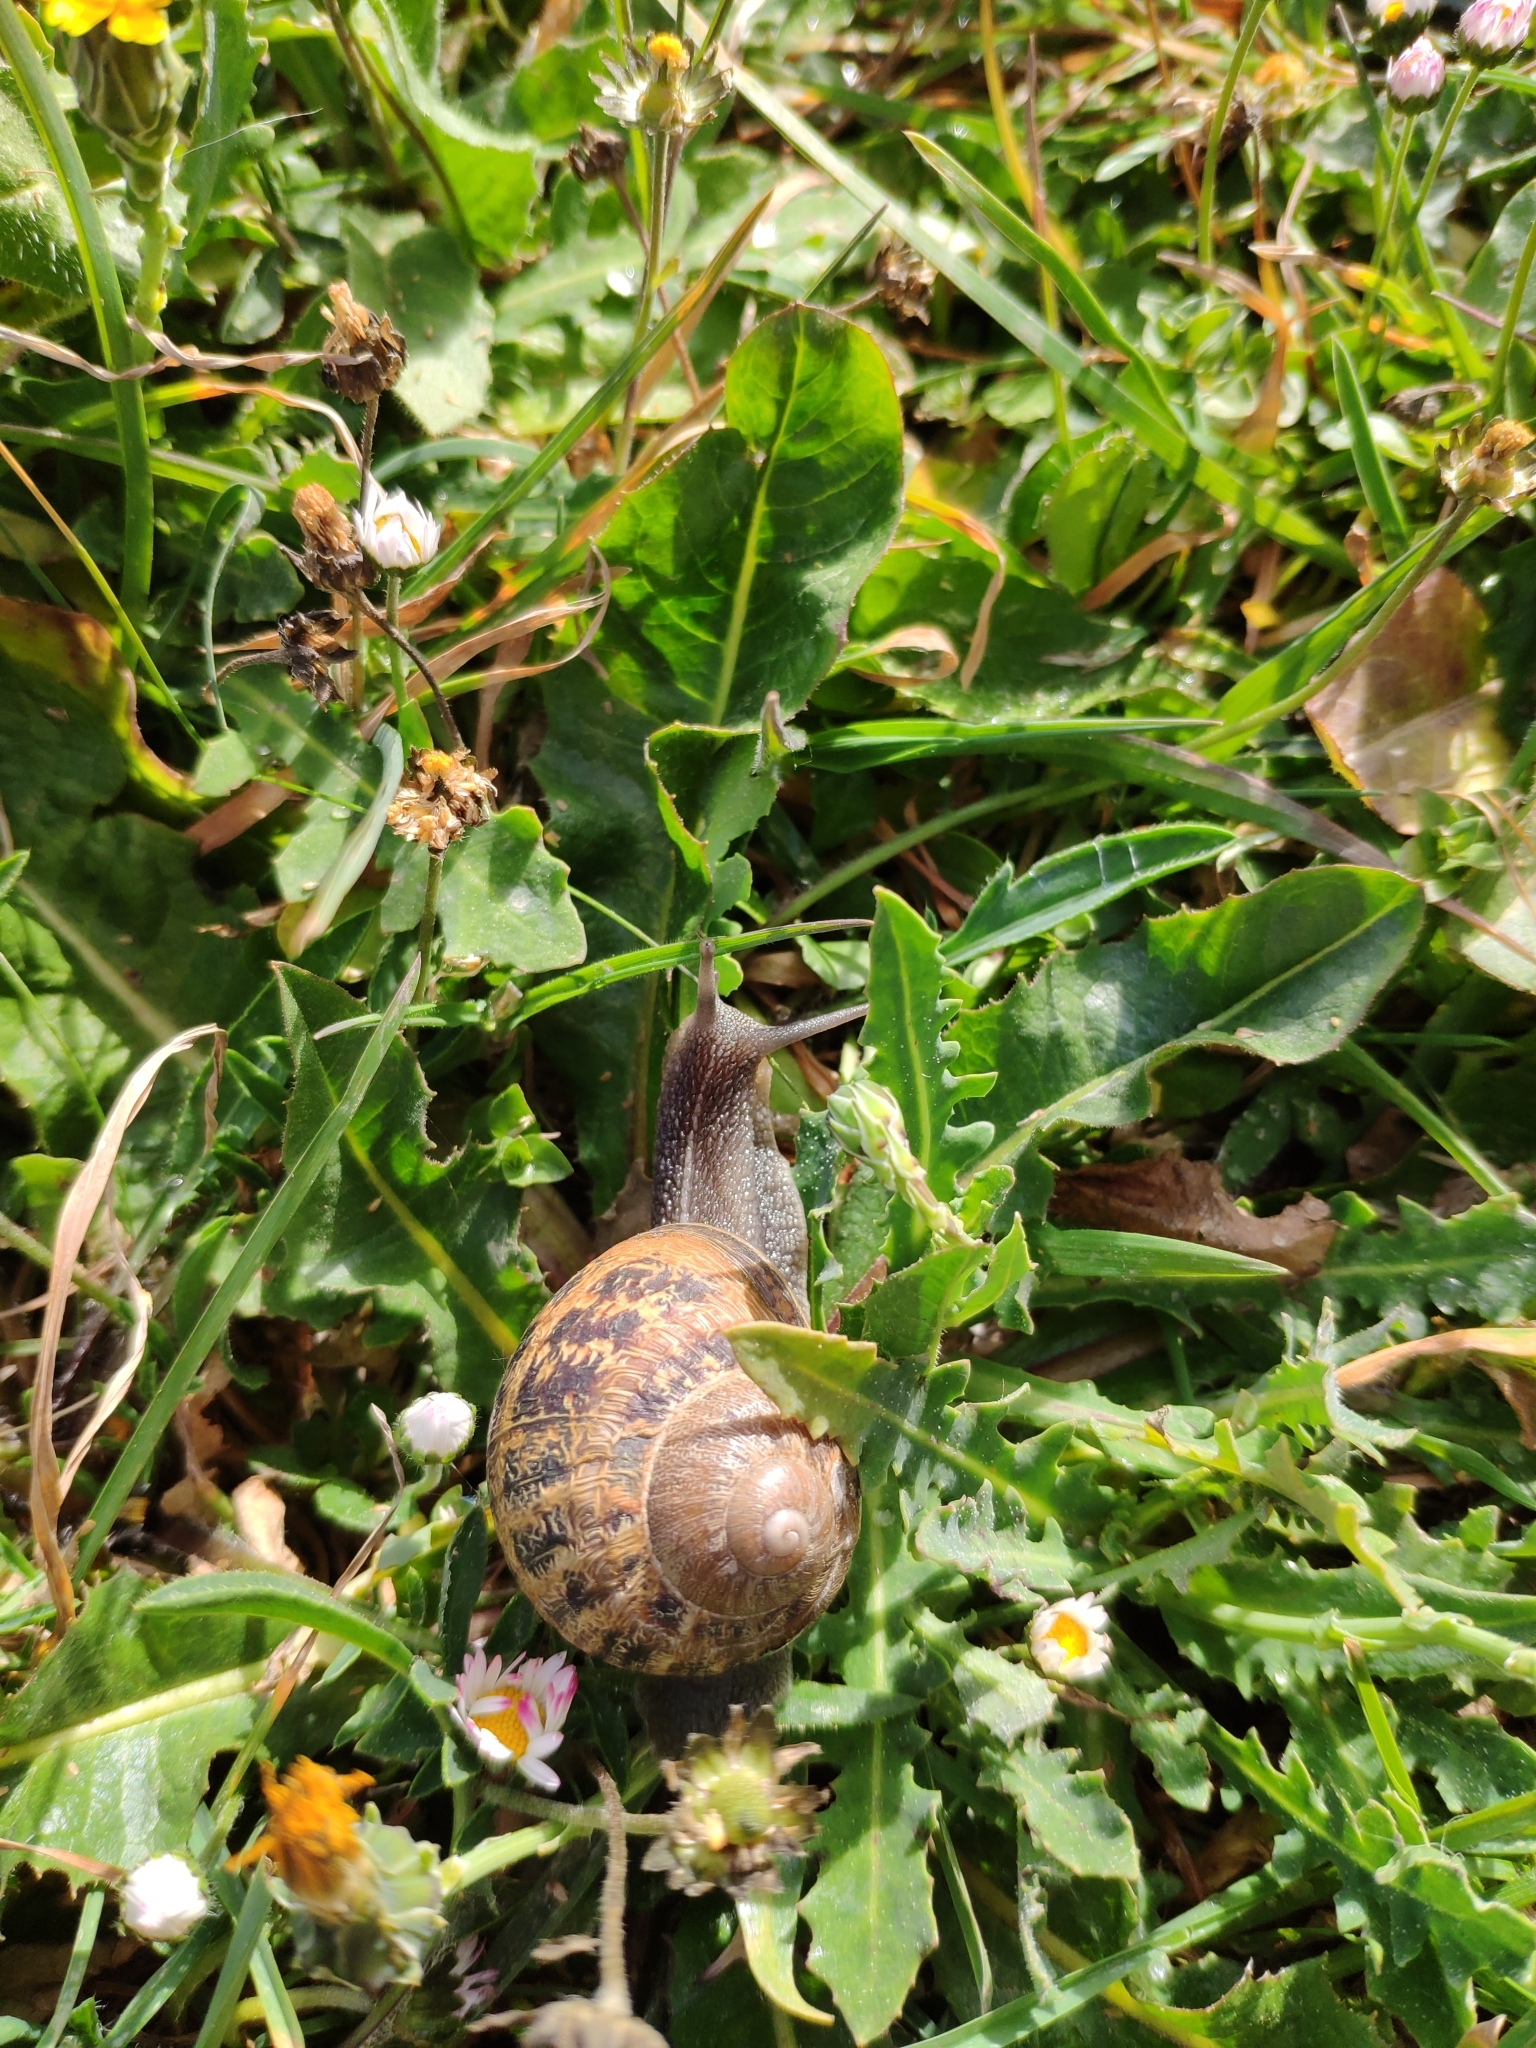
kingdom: Animalia
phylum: Mollusca
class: Gastropoda
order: Stylommatophora
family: Helicidae
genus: Cornu
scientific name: Cornu aspersum
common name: Brown garden snail
